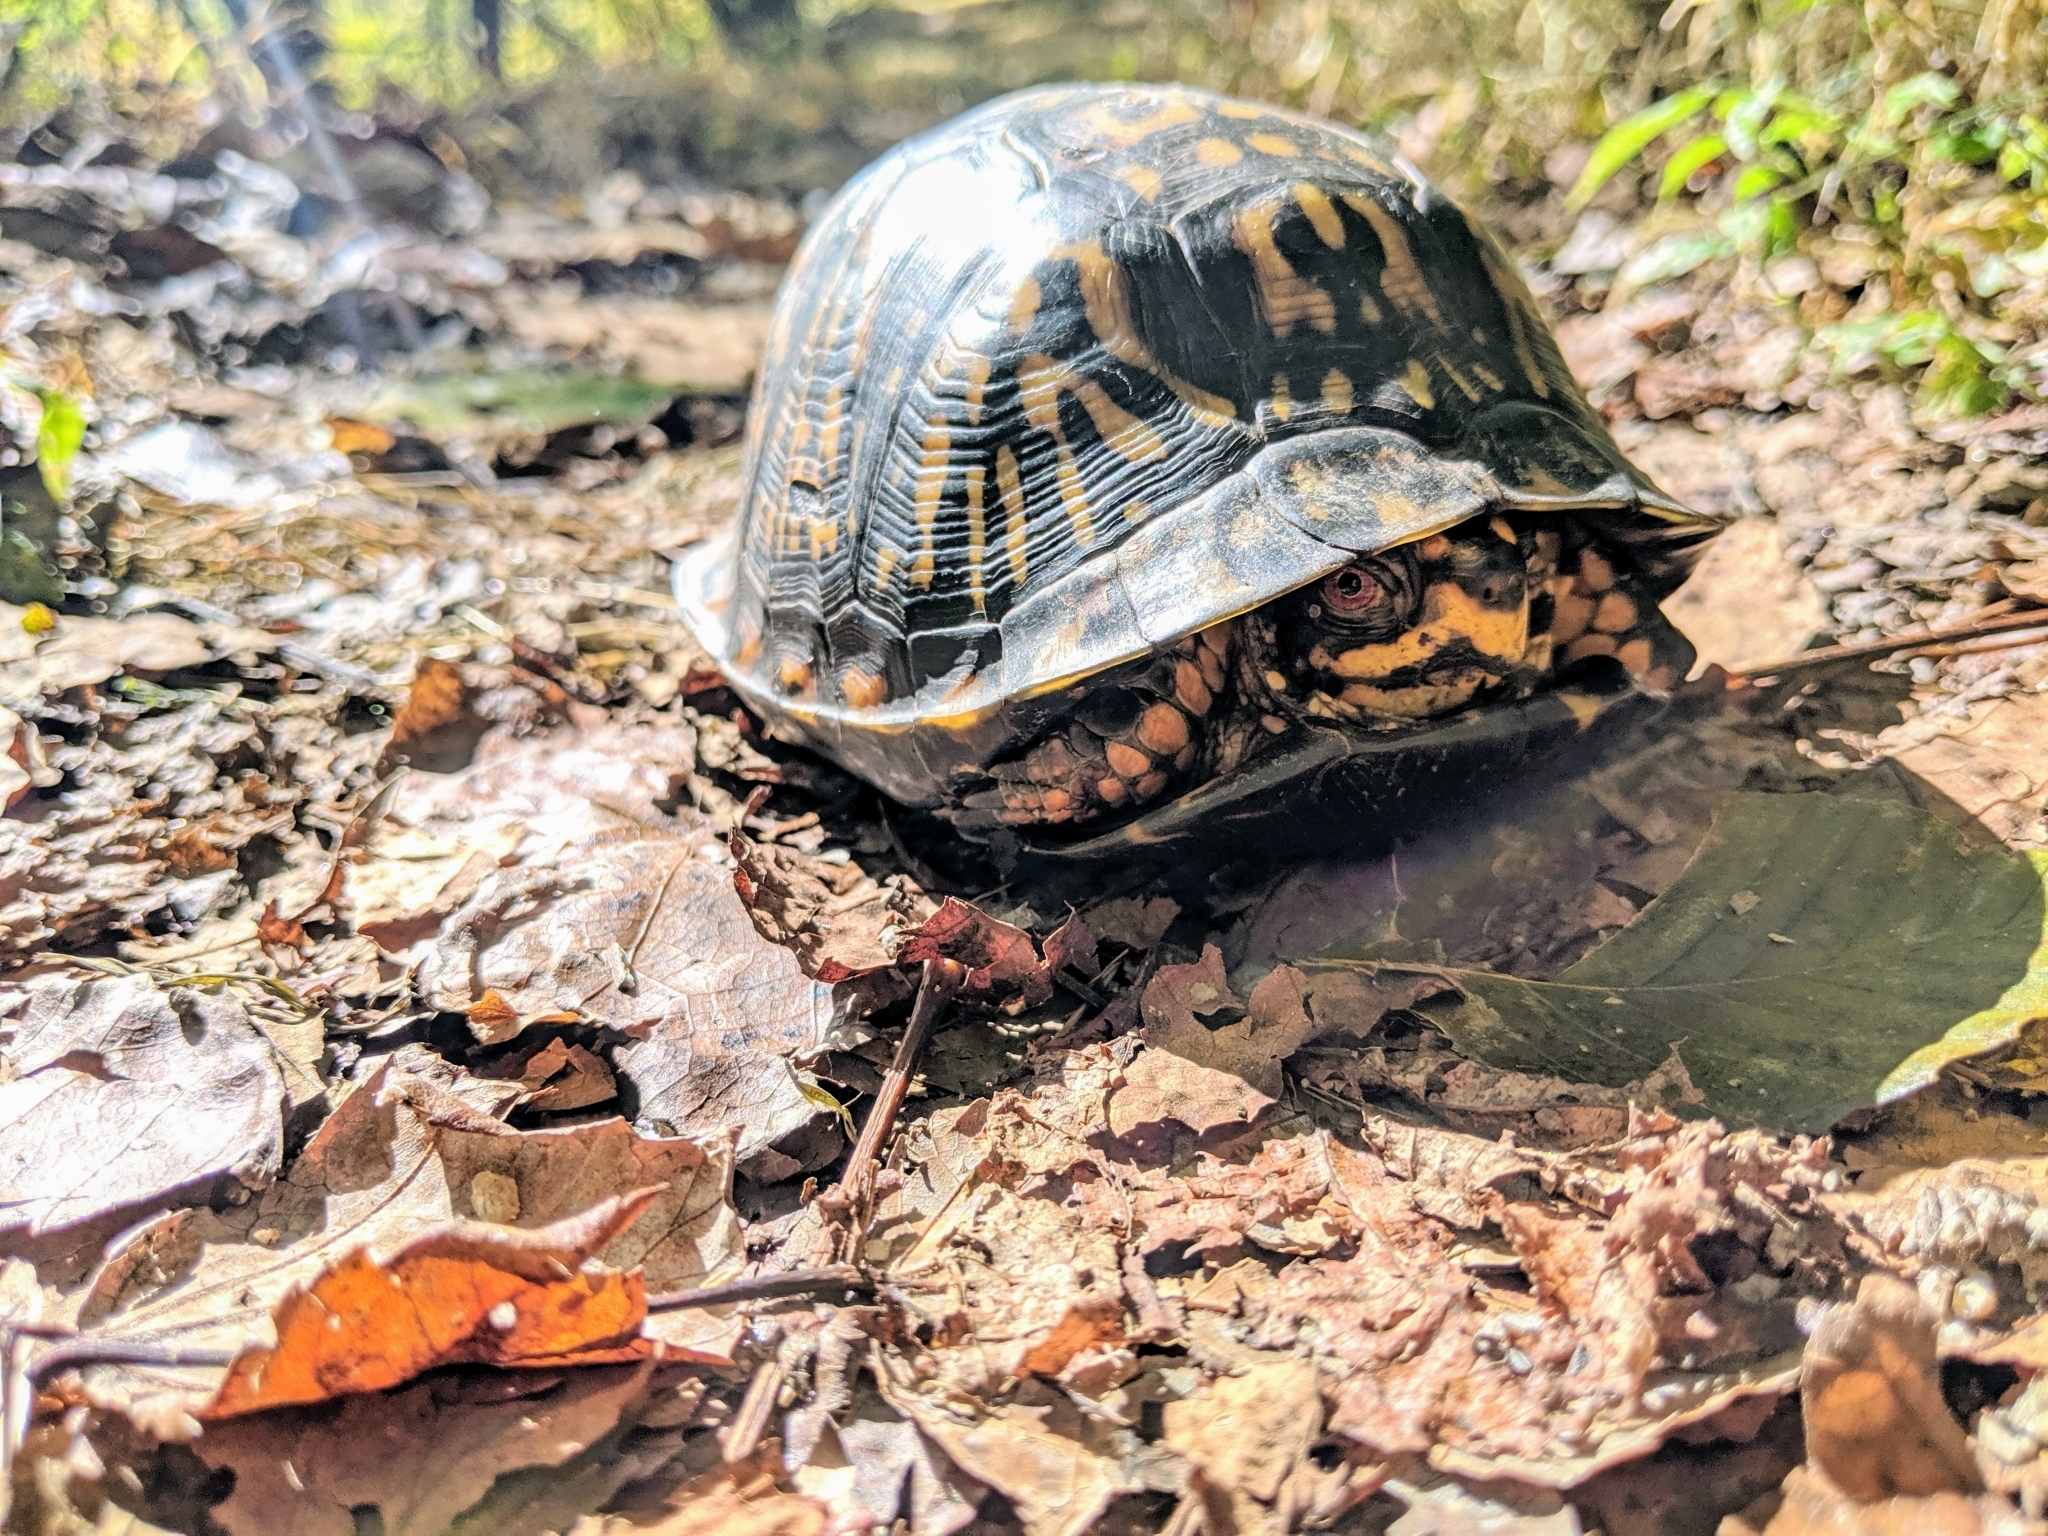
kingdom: Animalia
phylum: Chordata
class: Testudines
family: Emydidae
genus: Terrapene
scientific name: Terrapene carolina
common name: Common box turtle
